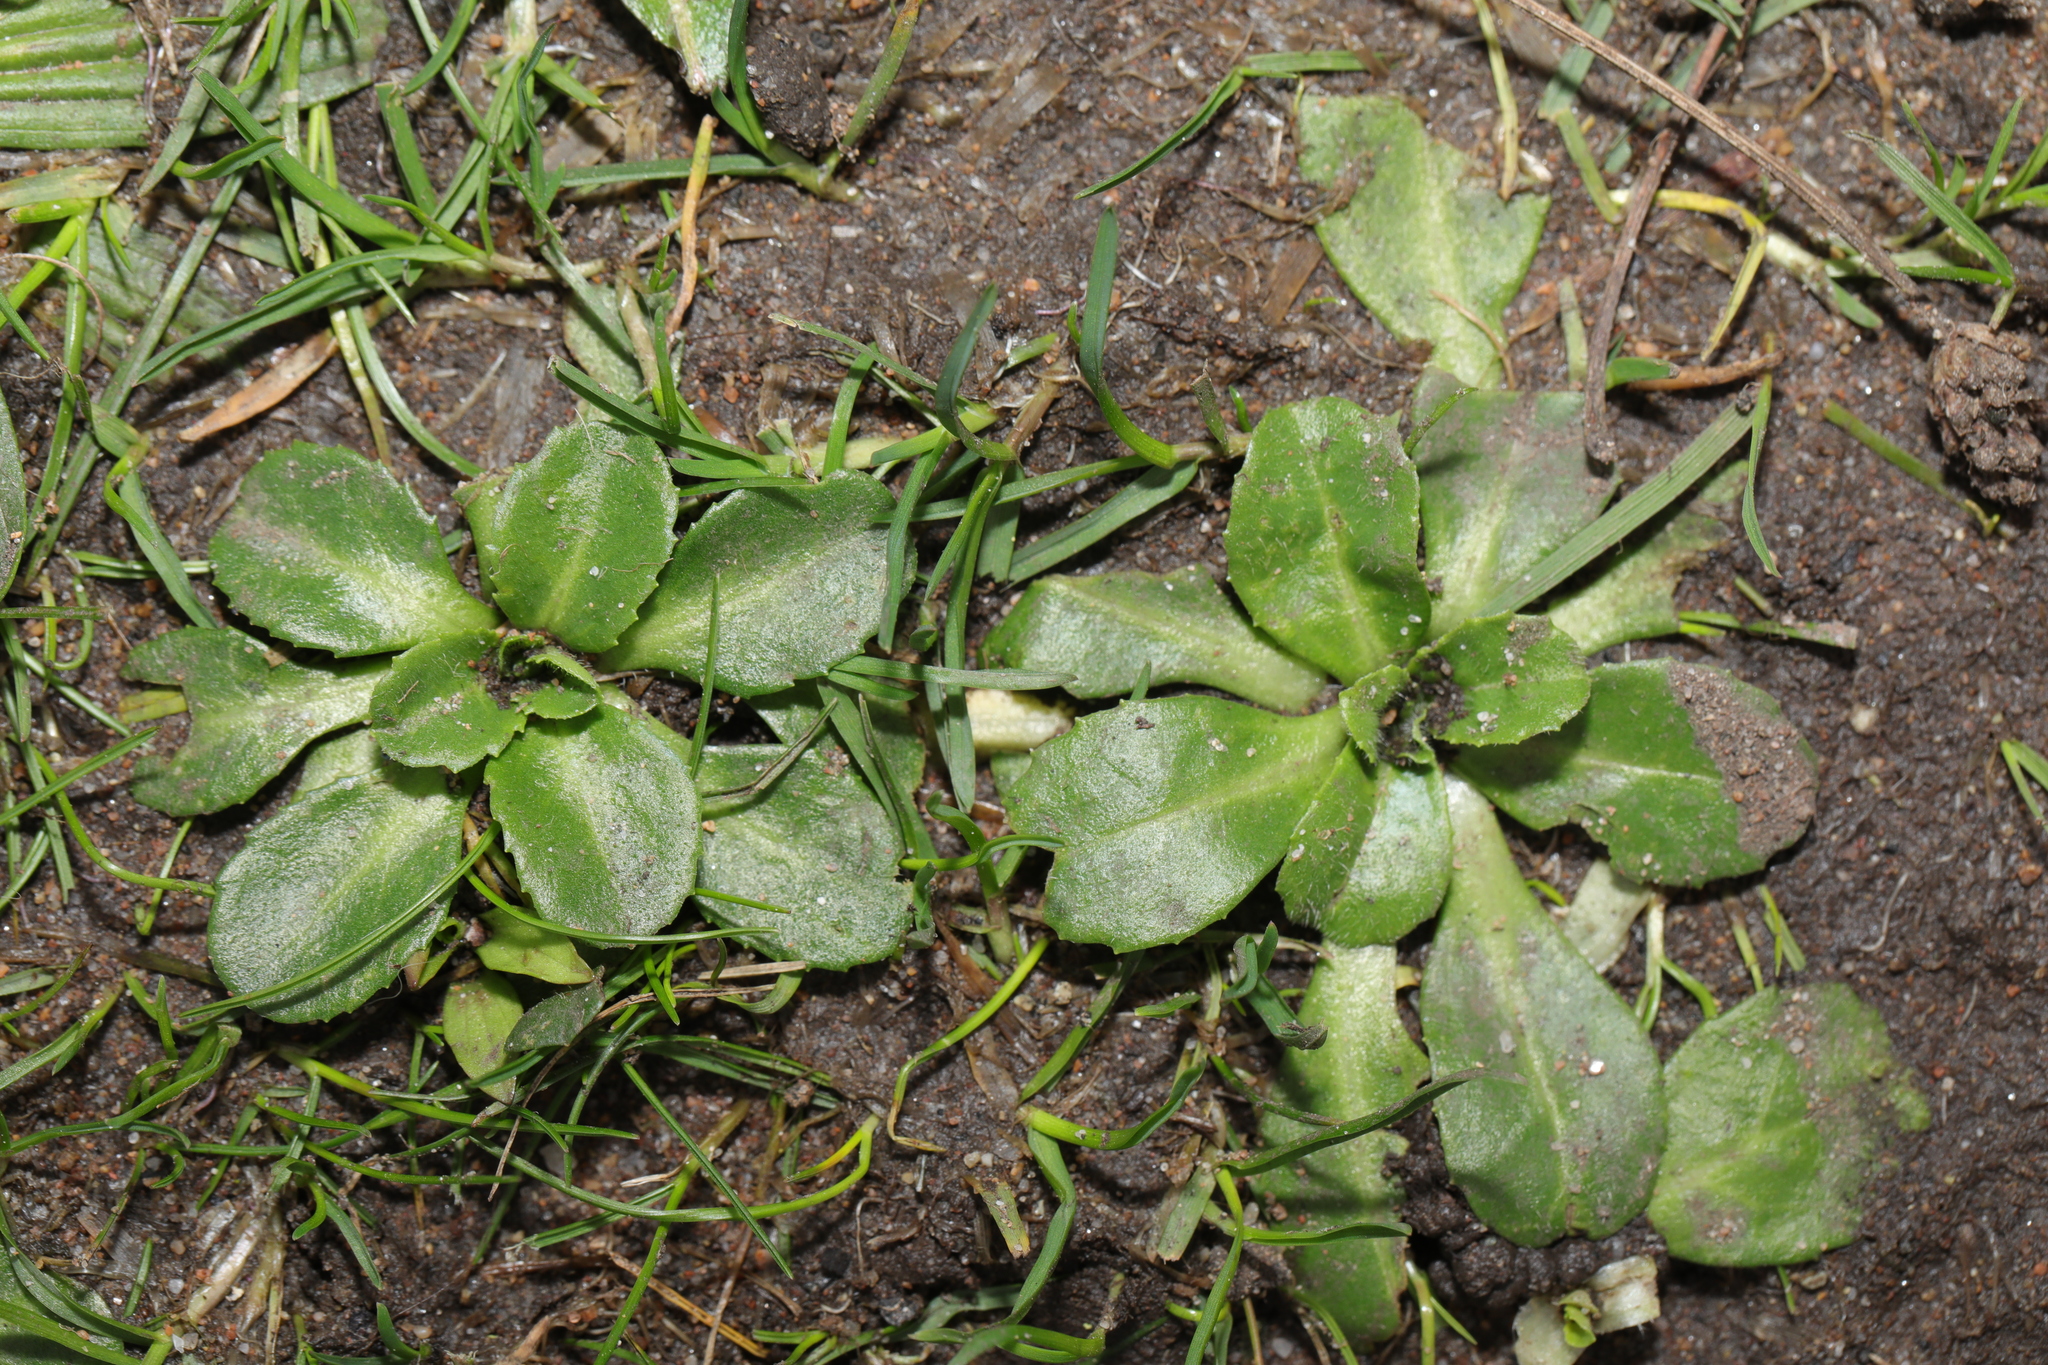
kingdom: Plantae
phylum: Tracheophyta
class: Magnoliopsida
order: Asterales
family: Asteraceae
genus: Bellis
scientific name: Bellis perennis
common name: Lawndaisy
